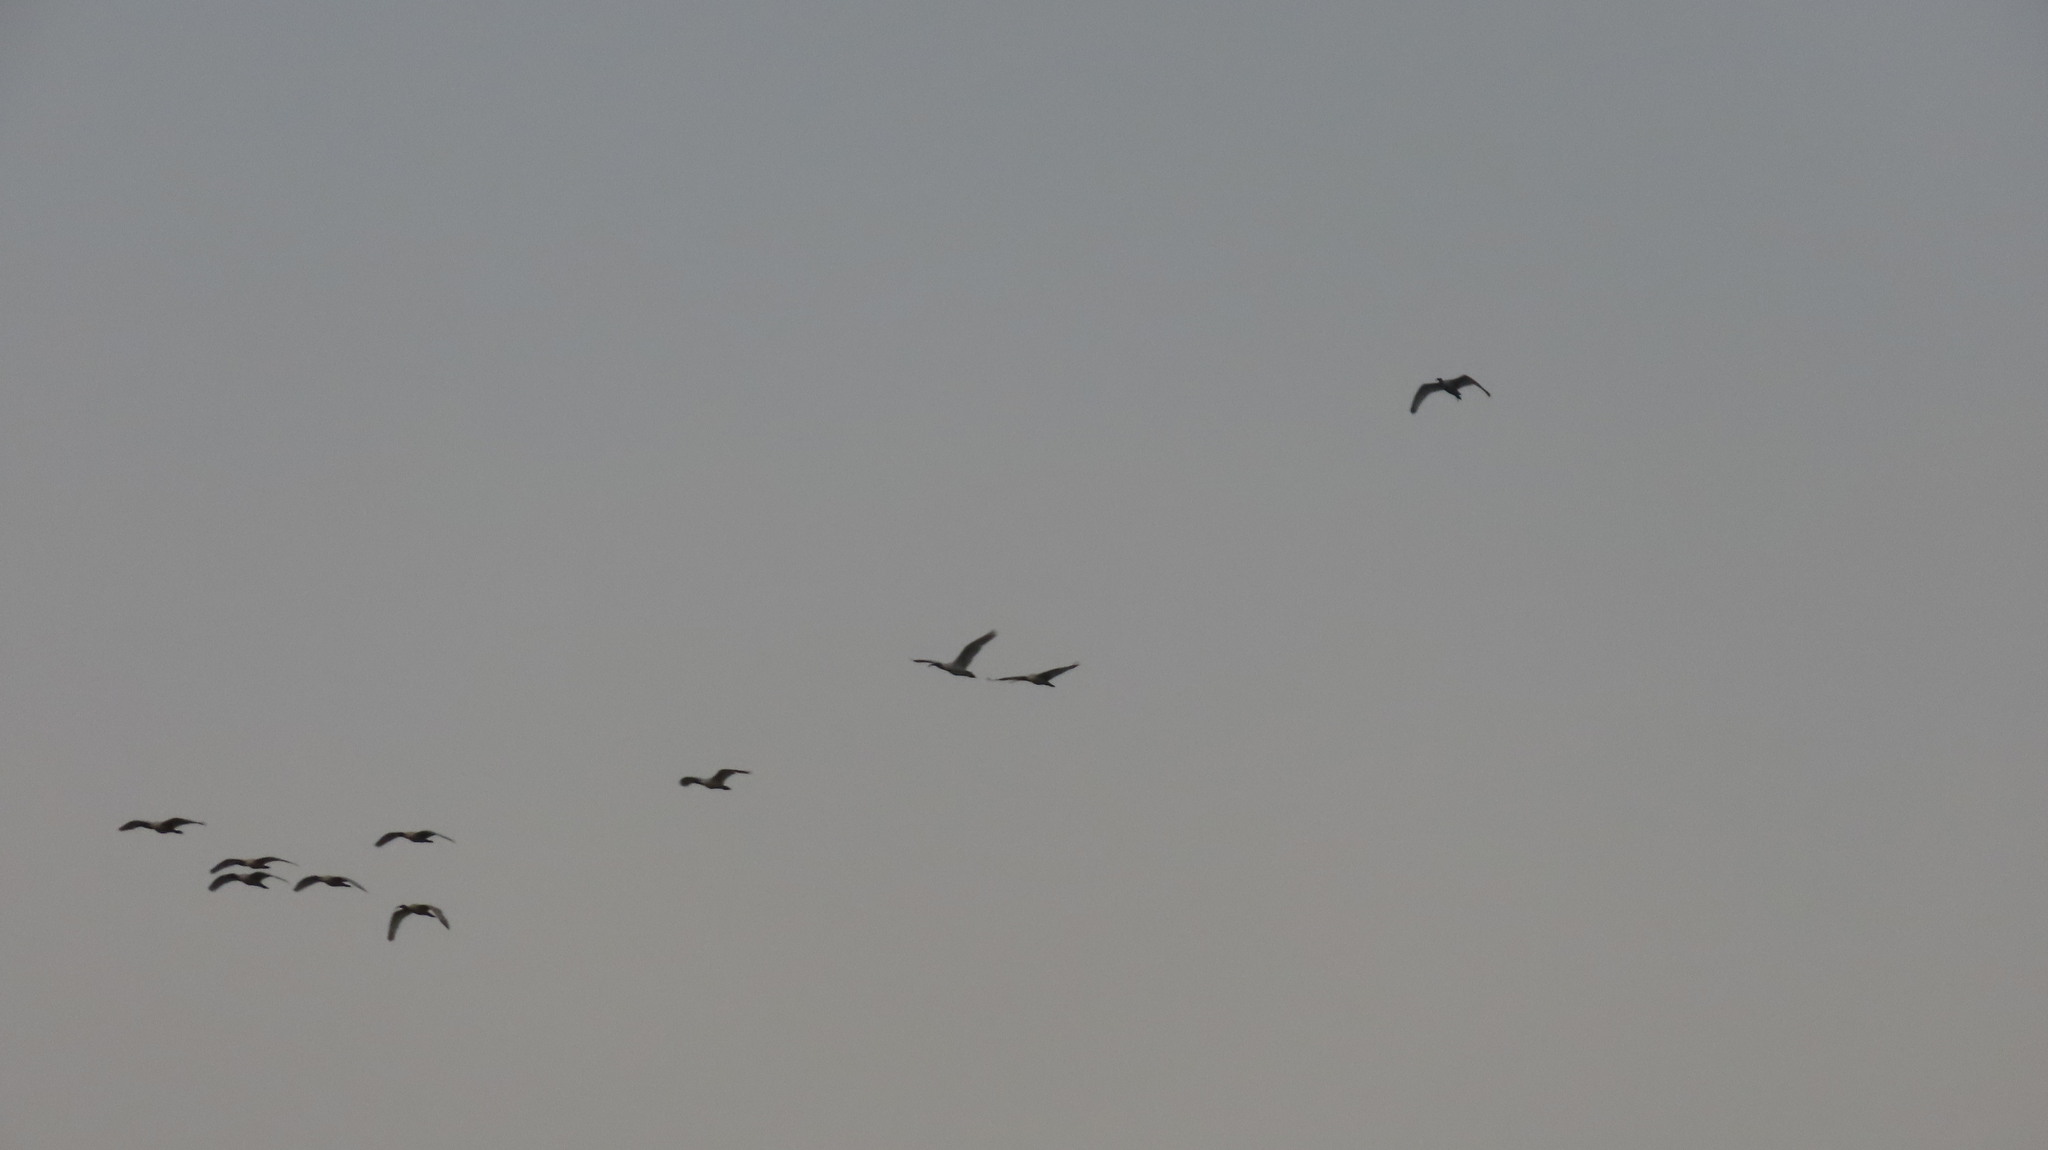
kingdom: Animalia
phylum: Chordata
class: Aves
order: Pelecaniformes
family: Threskiornithidae
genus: Threskiornis
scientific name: Threskiornis melanocephalus
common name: Black-headed ibis
